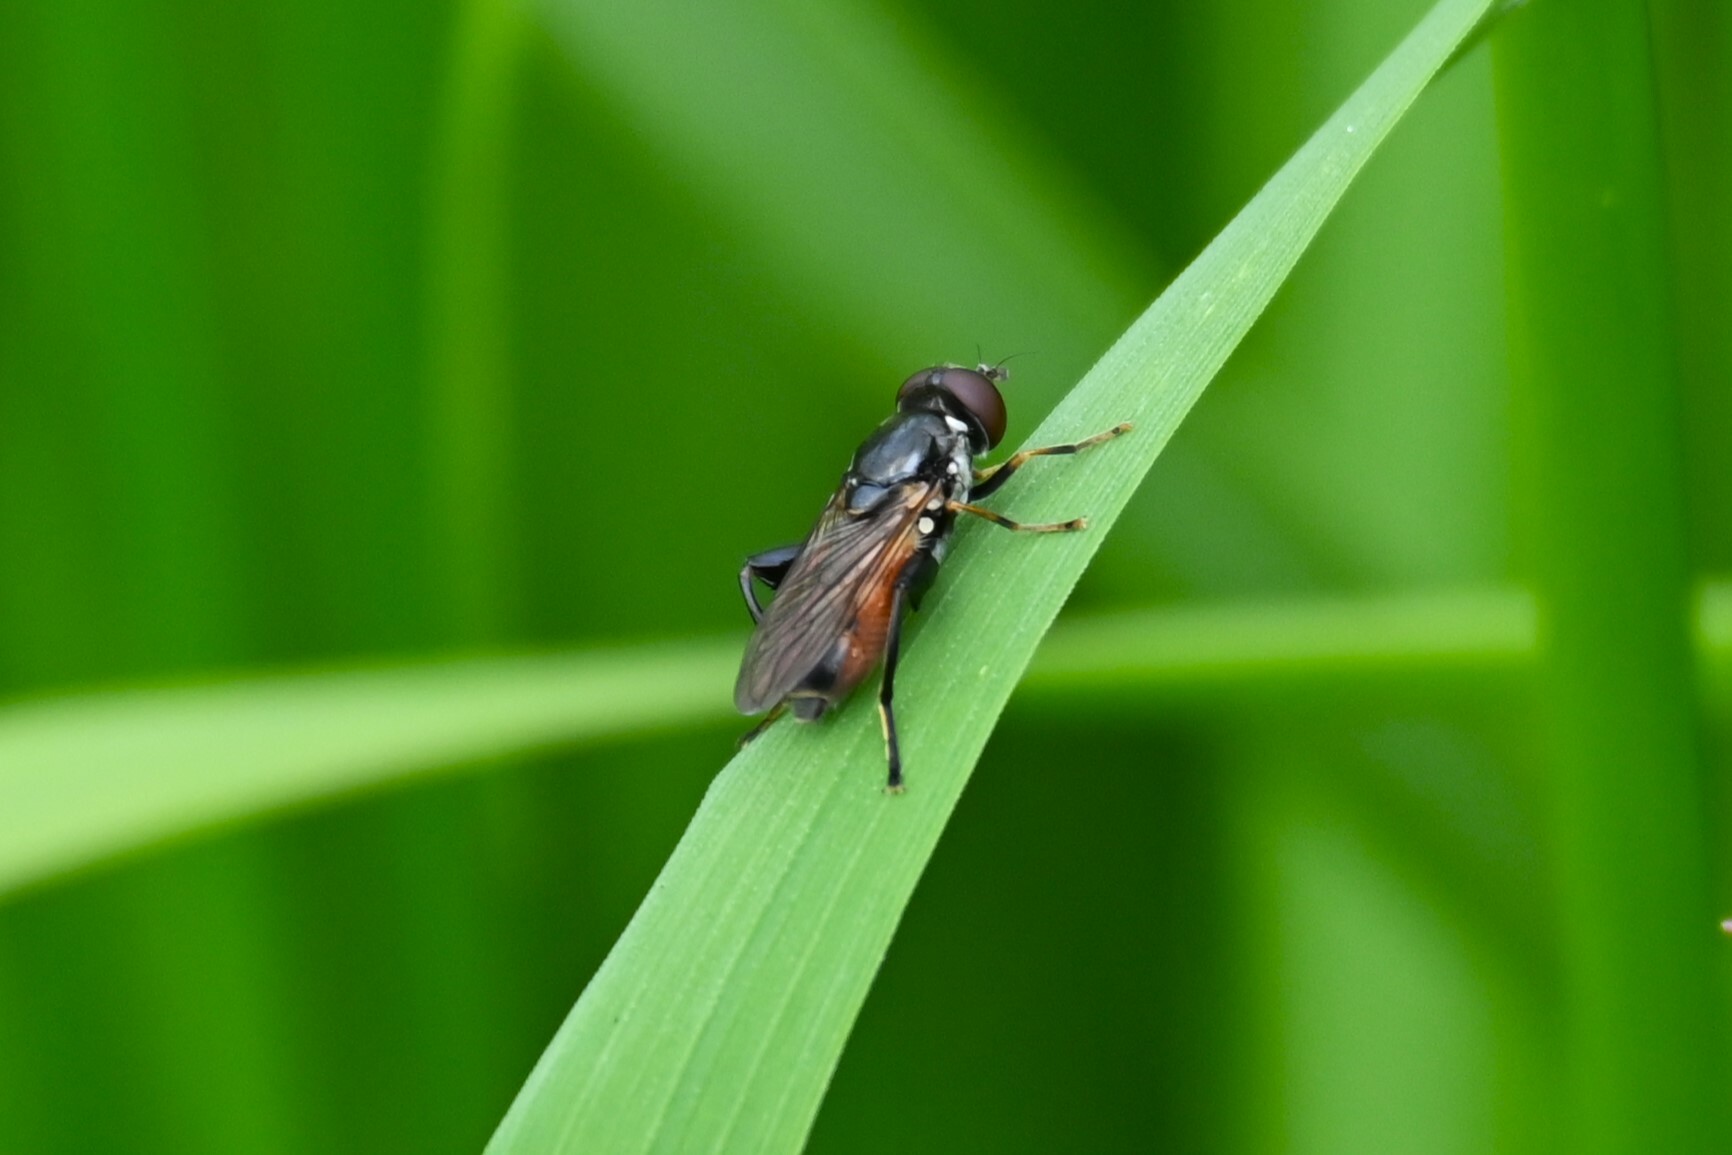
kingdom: Animalia
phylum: Arthropoda
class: Insecta
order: Diptera
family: Syrphidae
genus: Tropidia
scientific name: Tropidia scita
